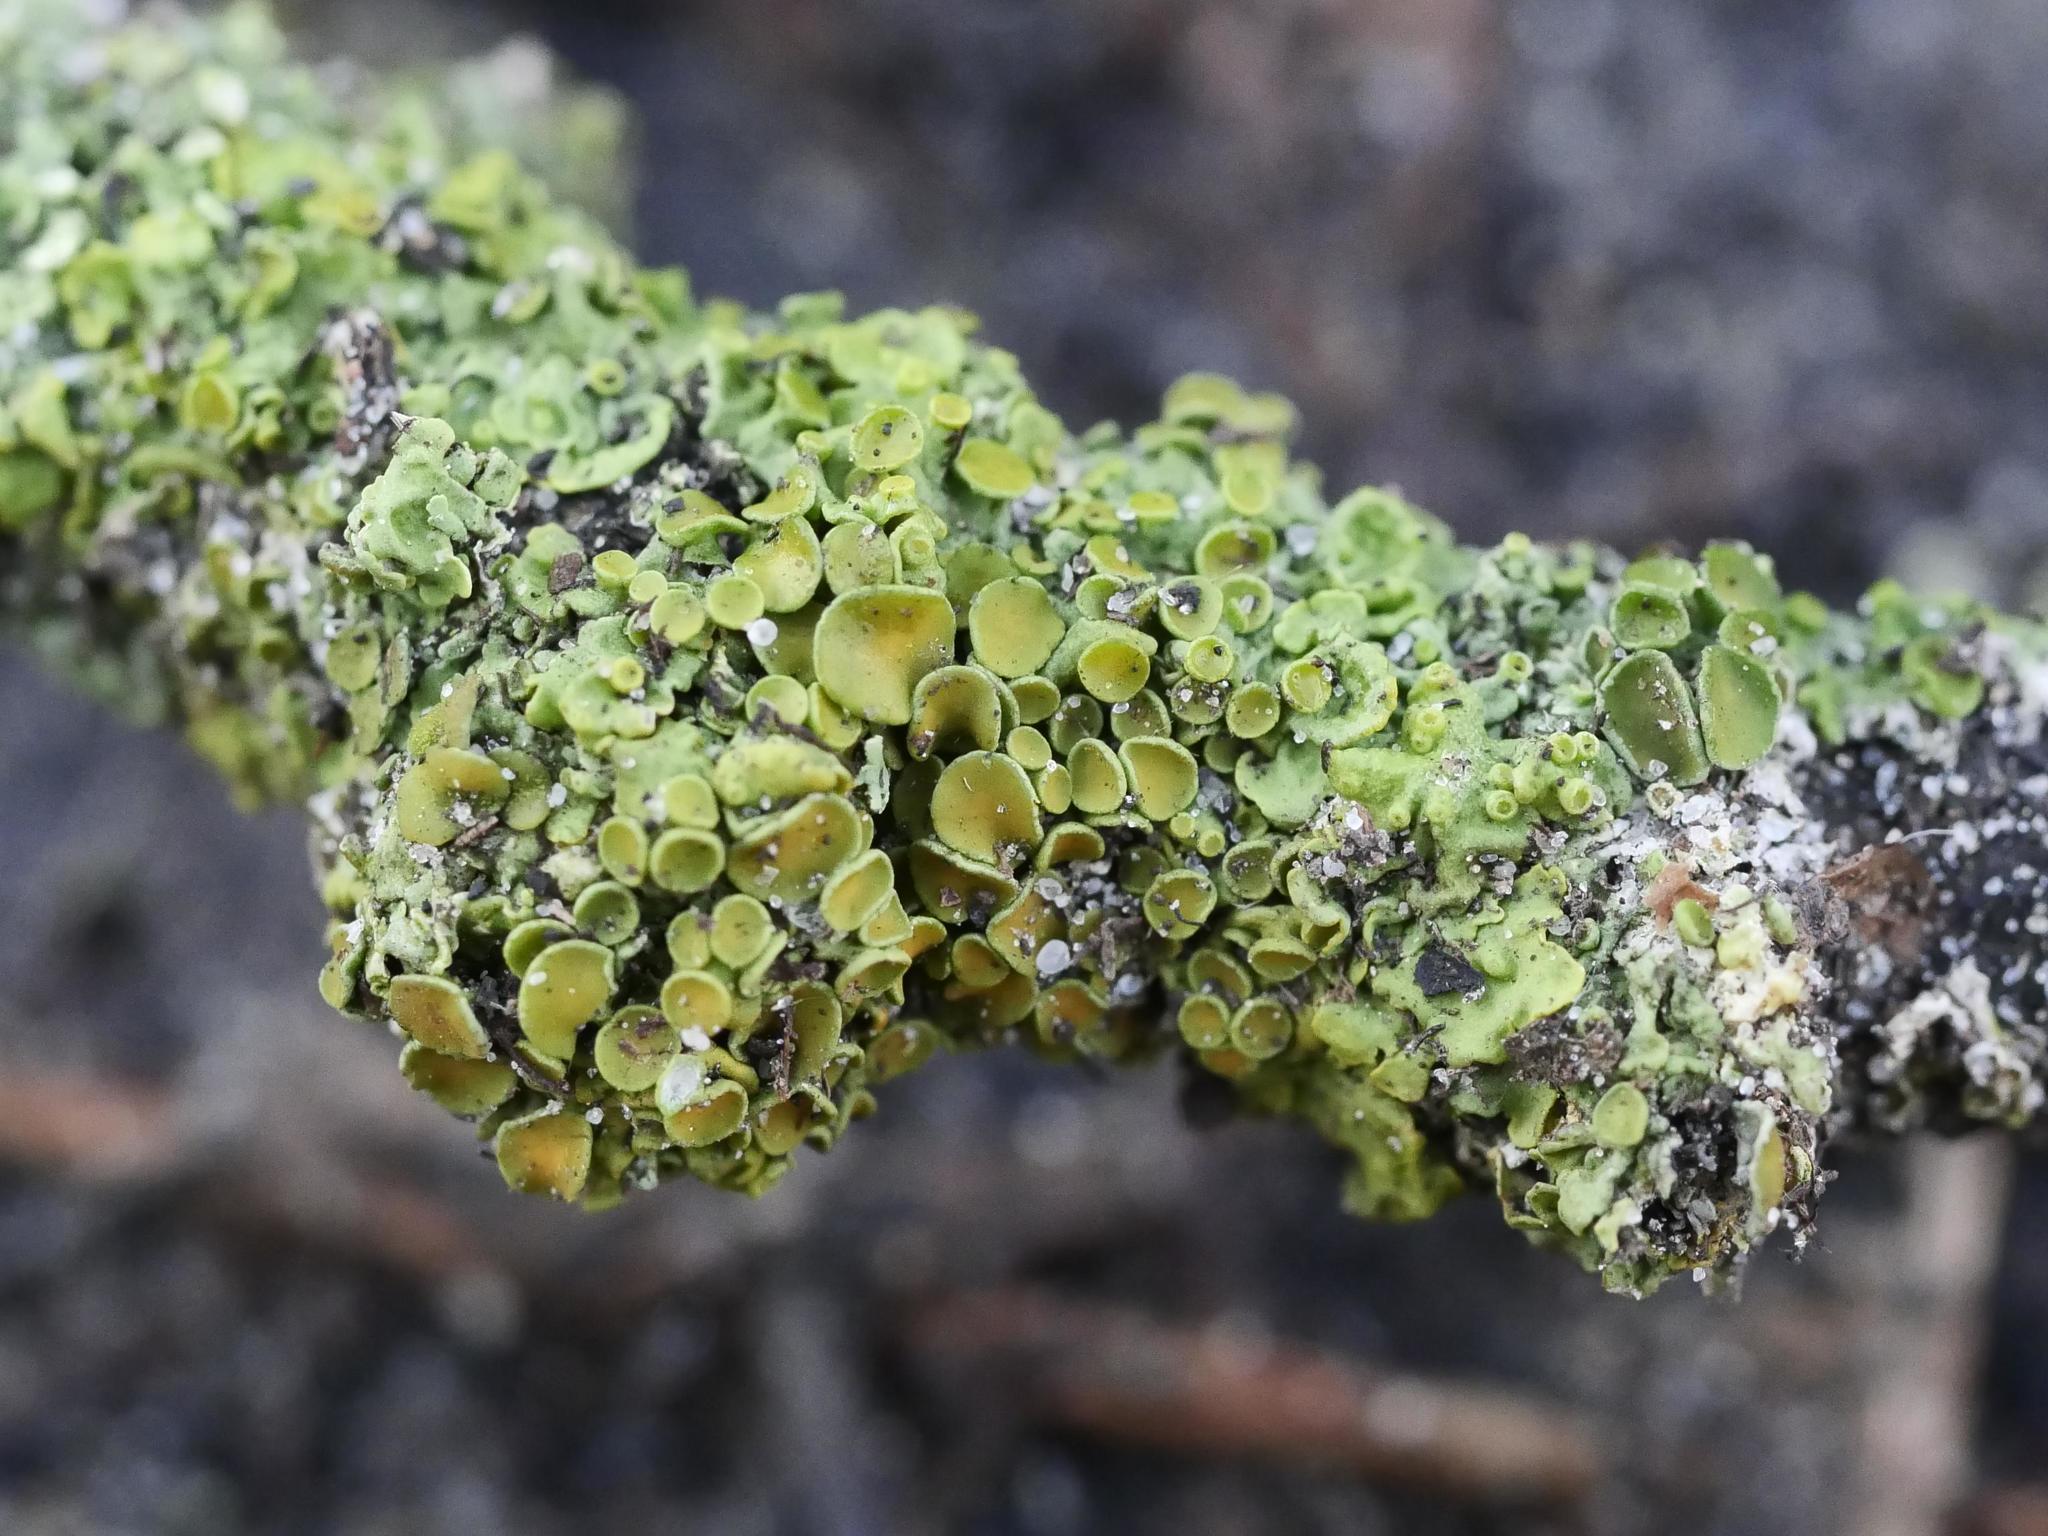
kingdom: Fungi
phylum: Ascomycota
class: Lecanoromycetes
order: Teloschistales
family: Teloschistaceae
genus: Xanthoria
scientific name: Xanthoria parietina
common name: Common orange lichen
